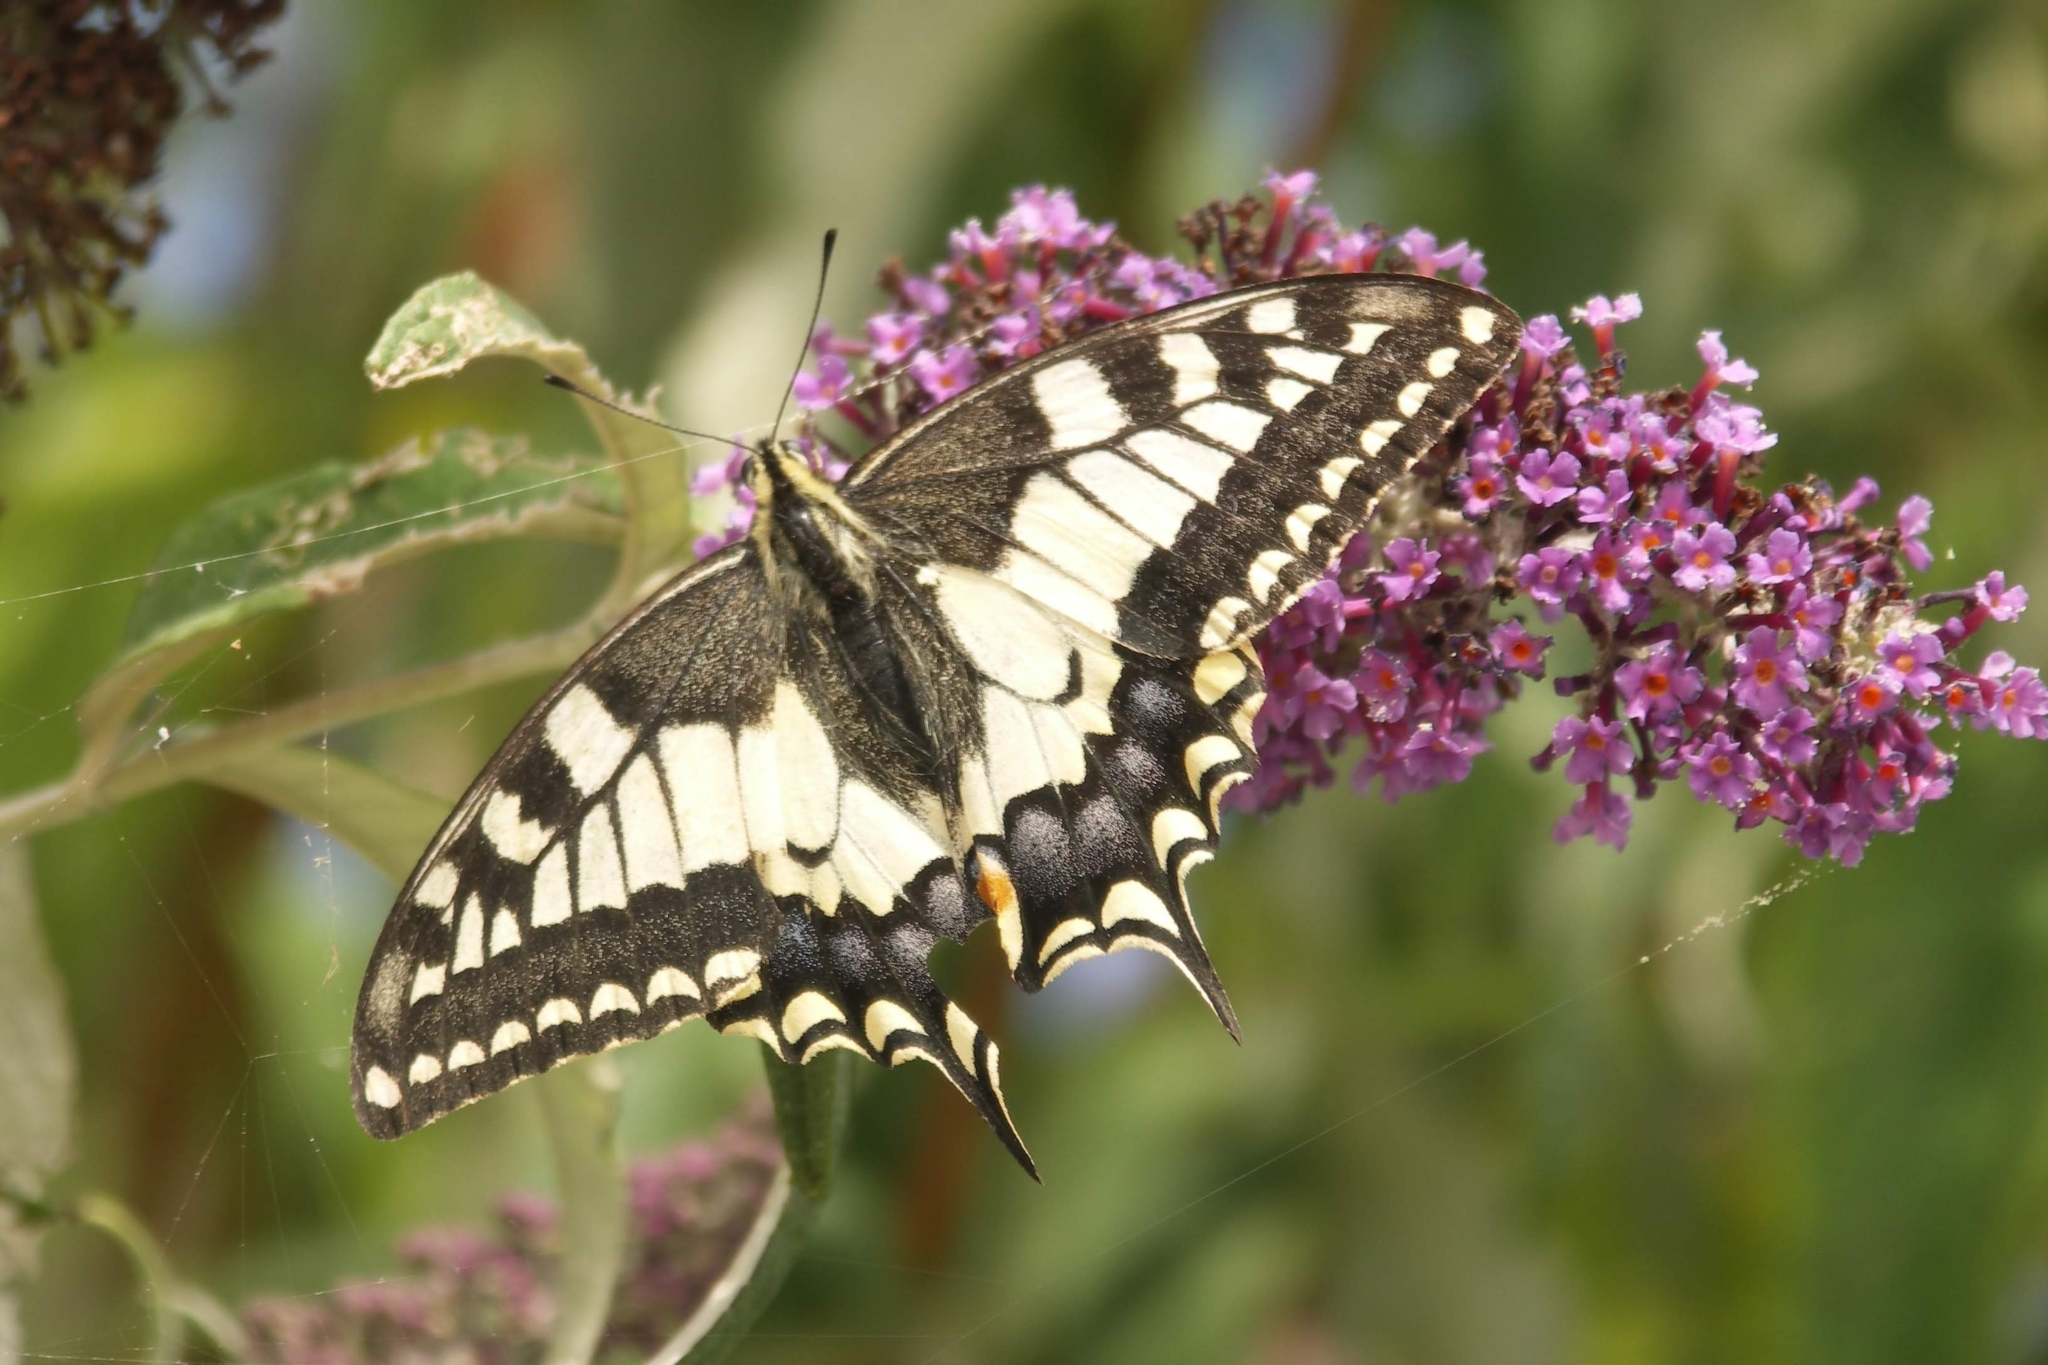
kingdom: Animalia
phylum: Arthropoda
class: Insecta
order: Lepidoptera
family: Papilionidae
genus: Papilio
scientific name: Papilio machaon
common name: Swallowtail
